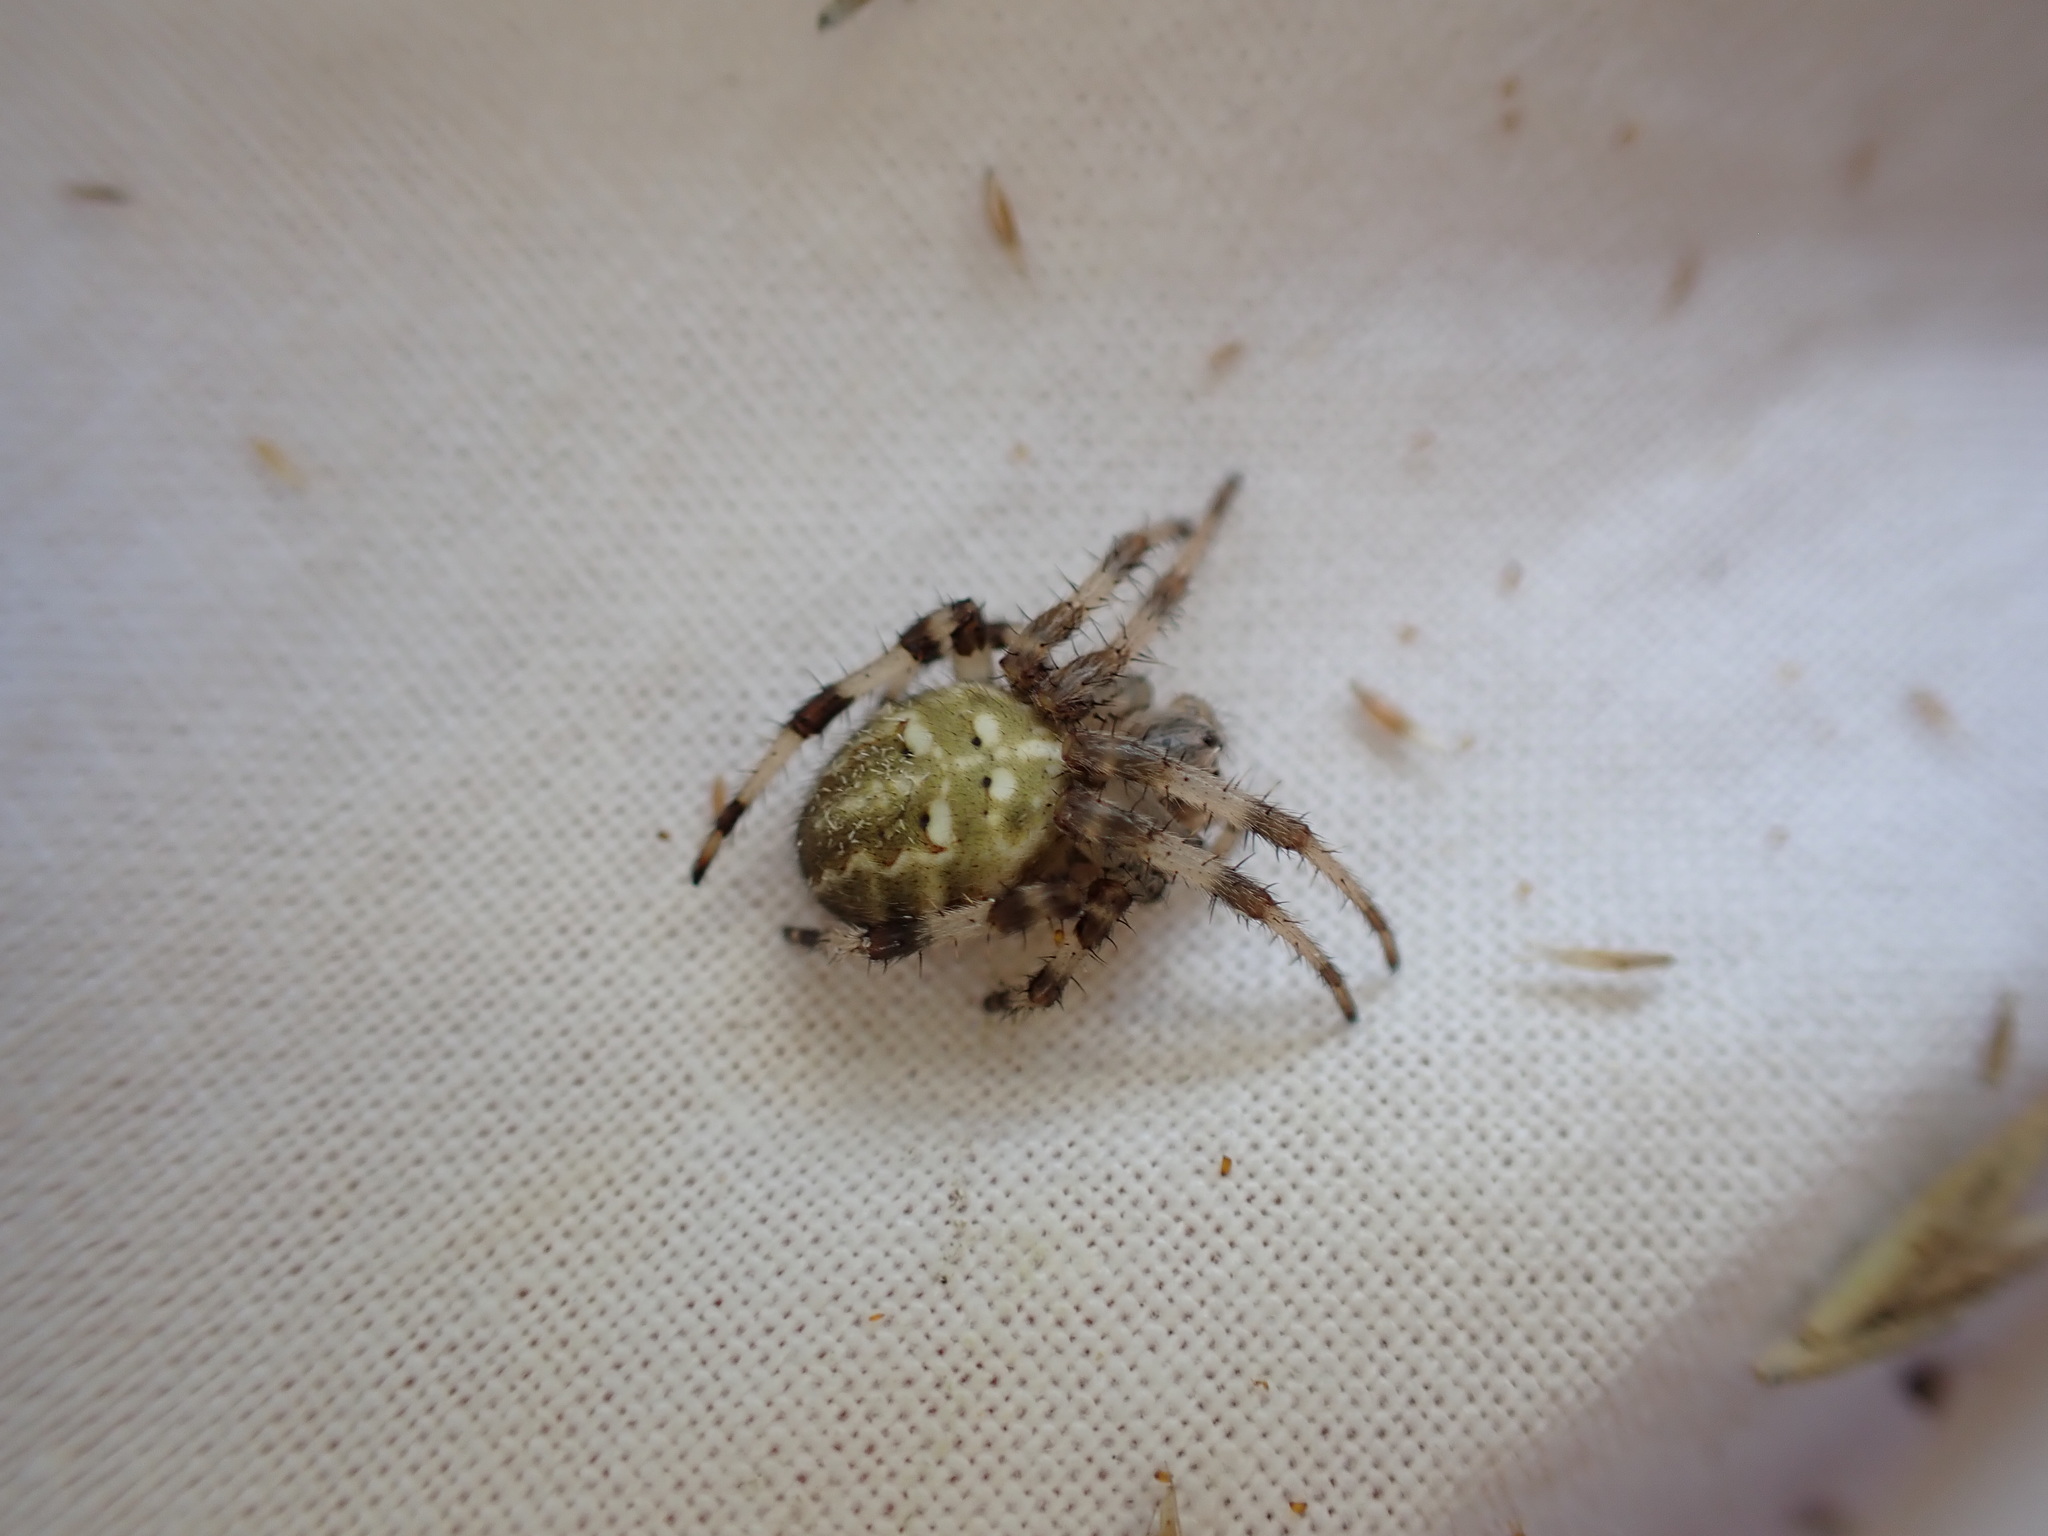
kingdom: Animalia
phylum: Arthropoda
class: Arachnida
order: Araneae
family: Araneidae
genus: Araneus
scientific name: Araneus quadratus
